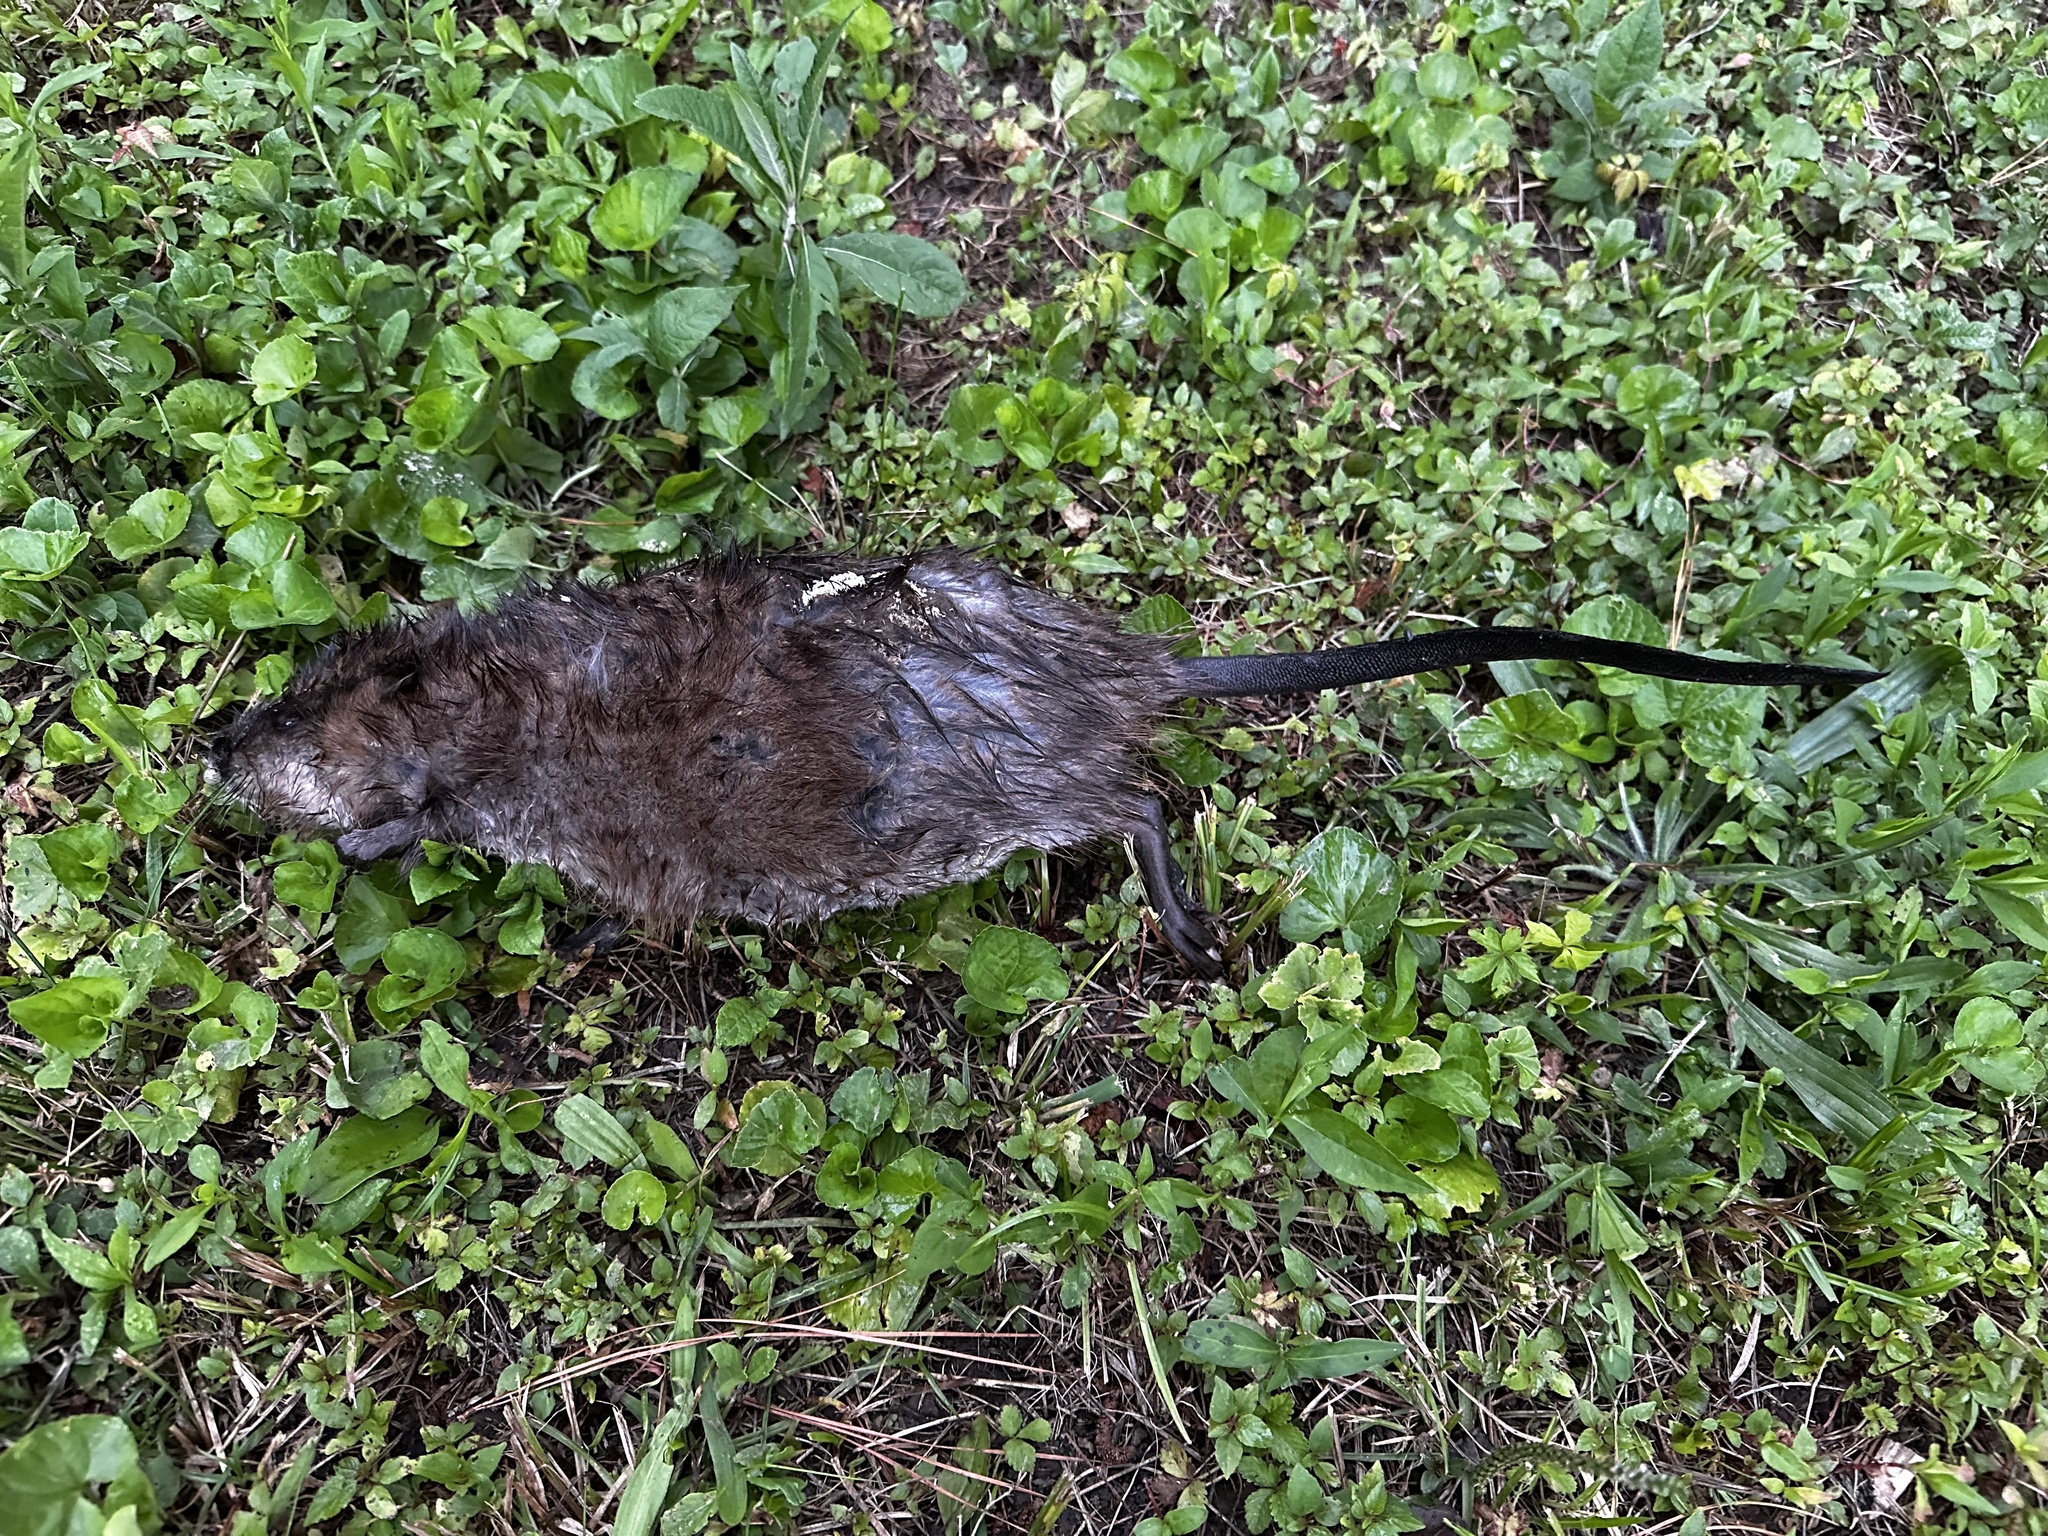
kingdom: Animalia
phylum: Chordata
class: Mammalia
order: Rodentia
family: Cricetidae
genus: Ondatra
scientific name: Ondatra zibethicus
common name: Muskrat
